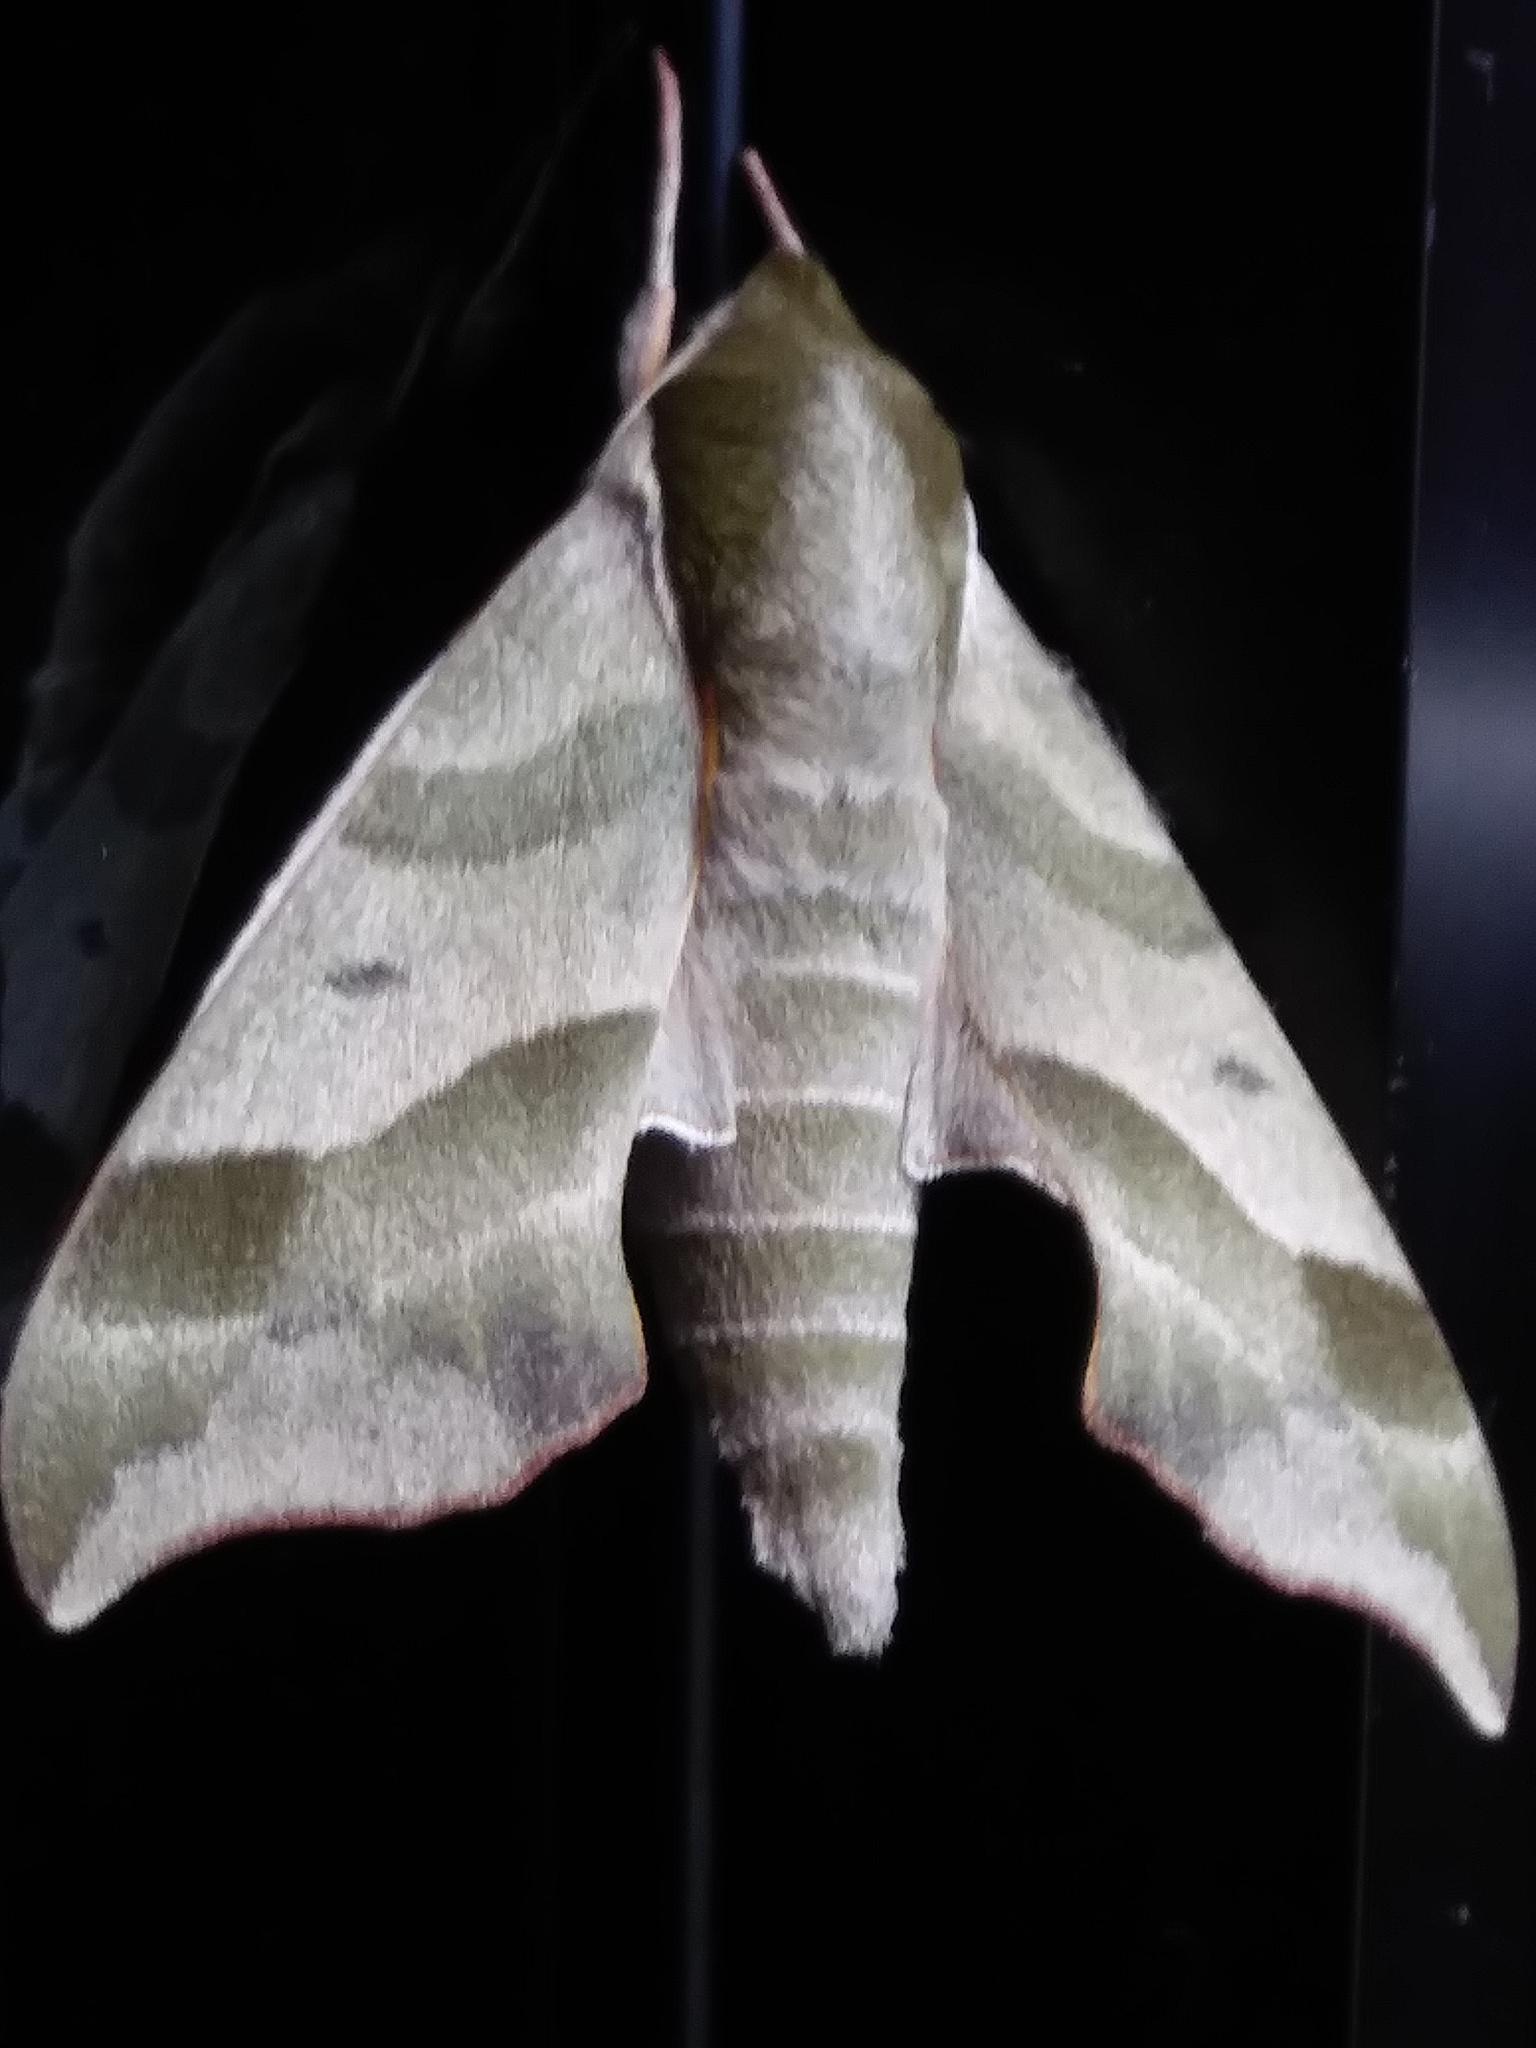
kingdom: Animalia
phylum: Arthropoda
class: Insecta
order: Lepidoptera
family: Sphingidae
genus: Darapsa
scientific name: Darapsa myron
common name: Hog sphinx
